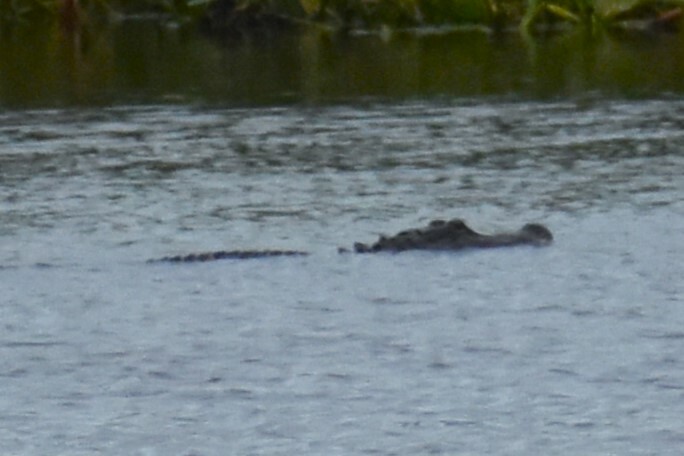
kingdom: Animalia
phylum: Chordata
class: Crocodylia
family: Alligatoridae
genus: Alligator
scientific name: Alligator mississippiensis
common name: American alligator
